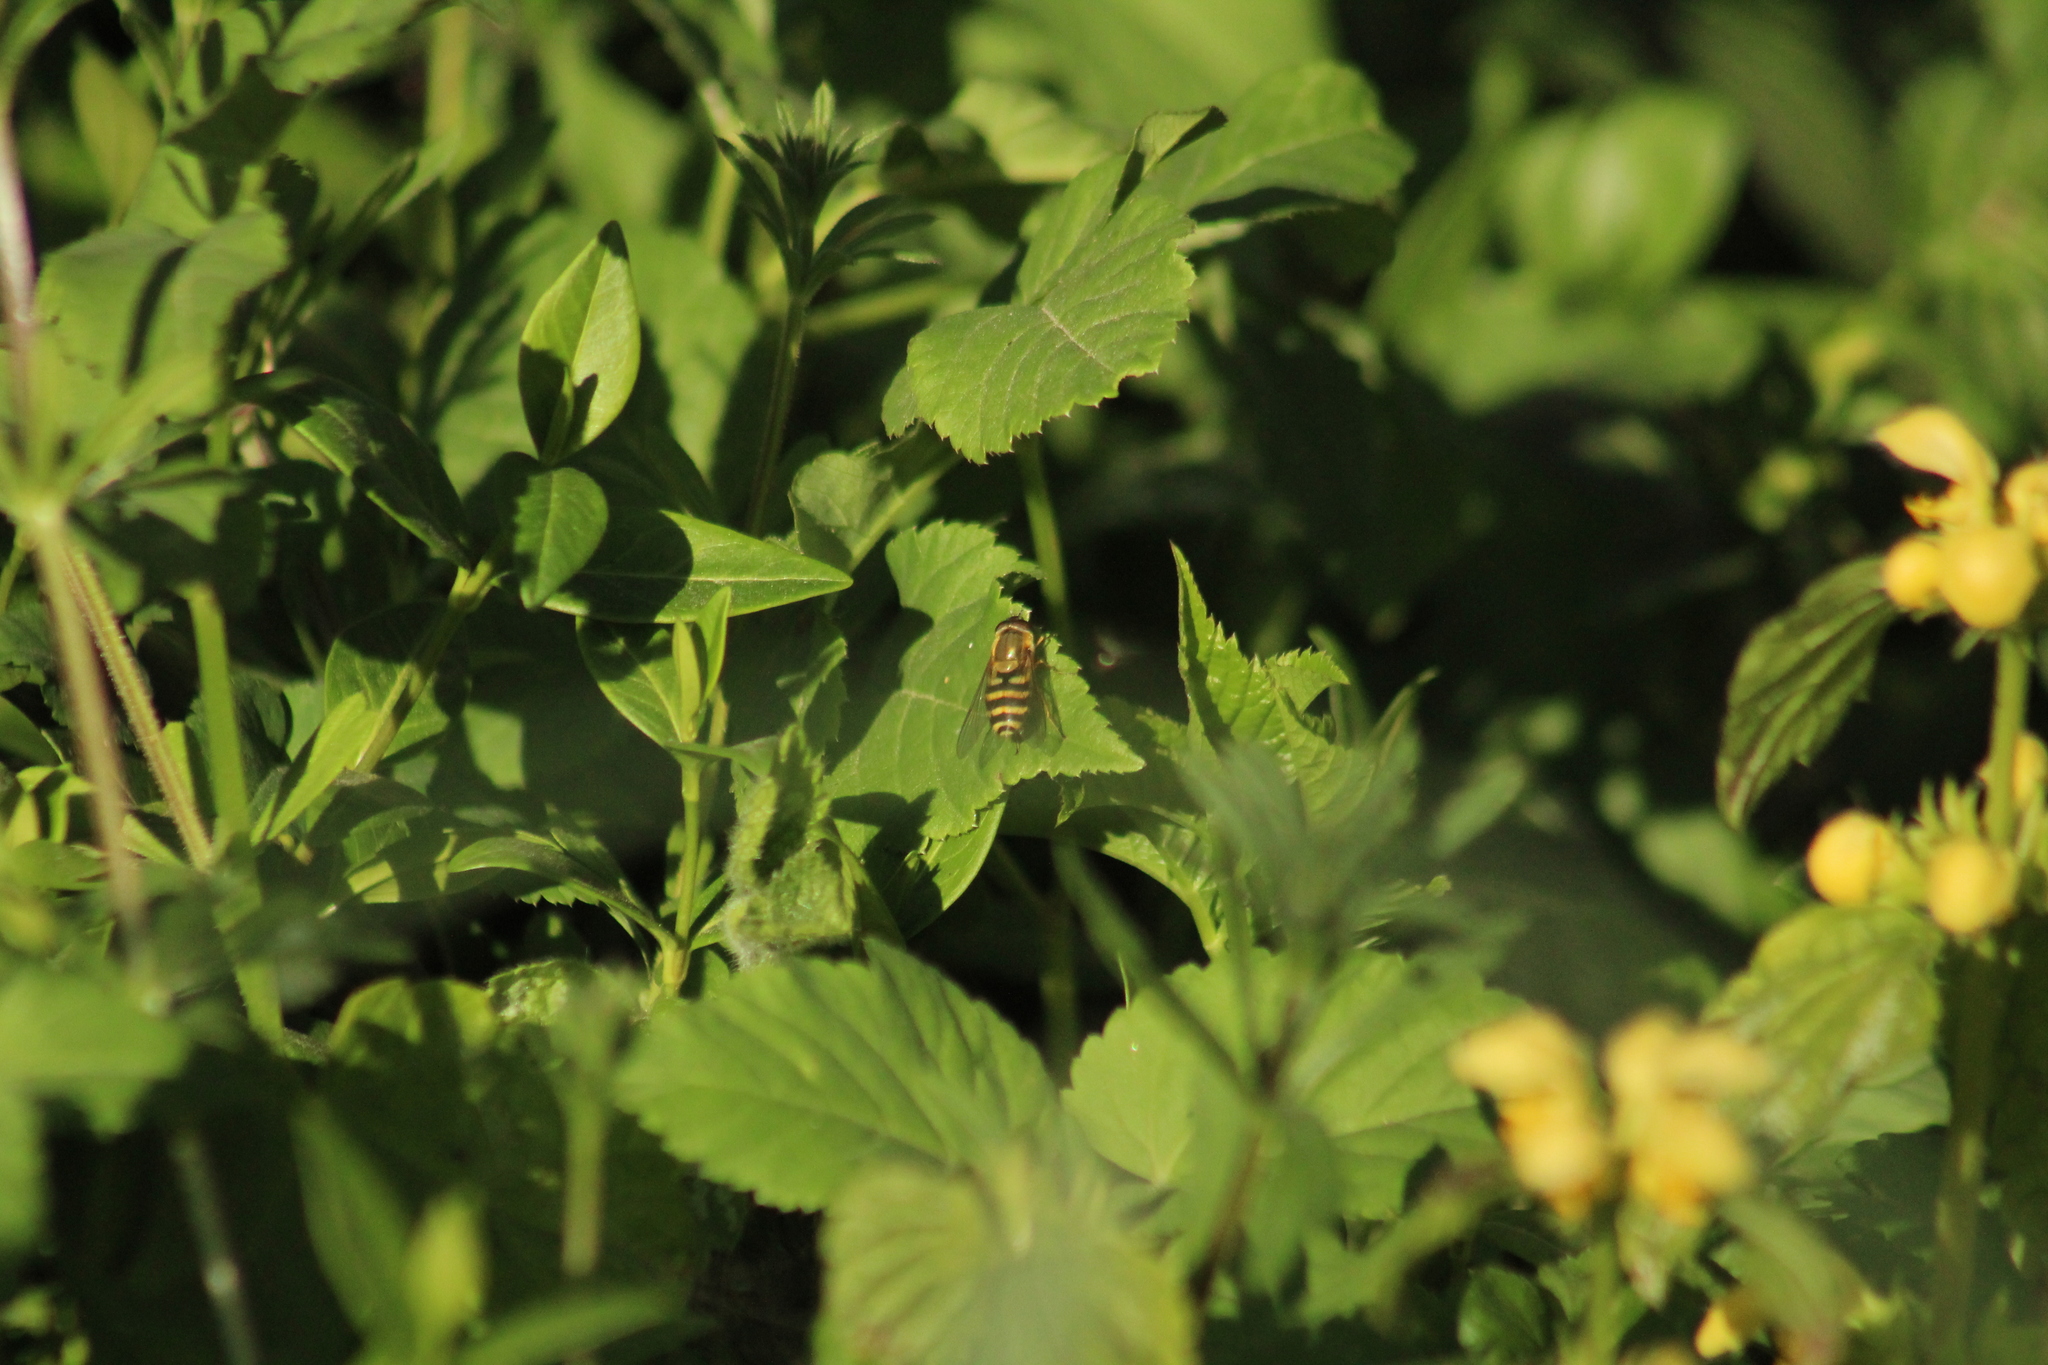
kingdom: Animalia
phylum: Arthropoda
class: Insecta
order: Diptera
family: Syrphidae
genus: Syrphus
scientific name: Syrphus
